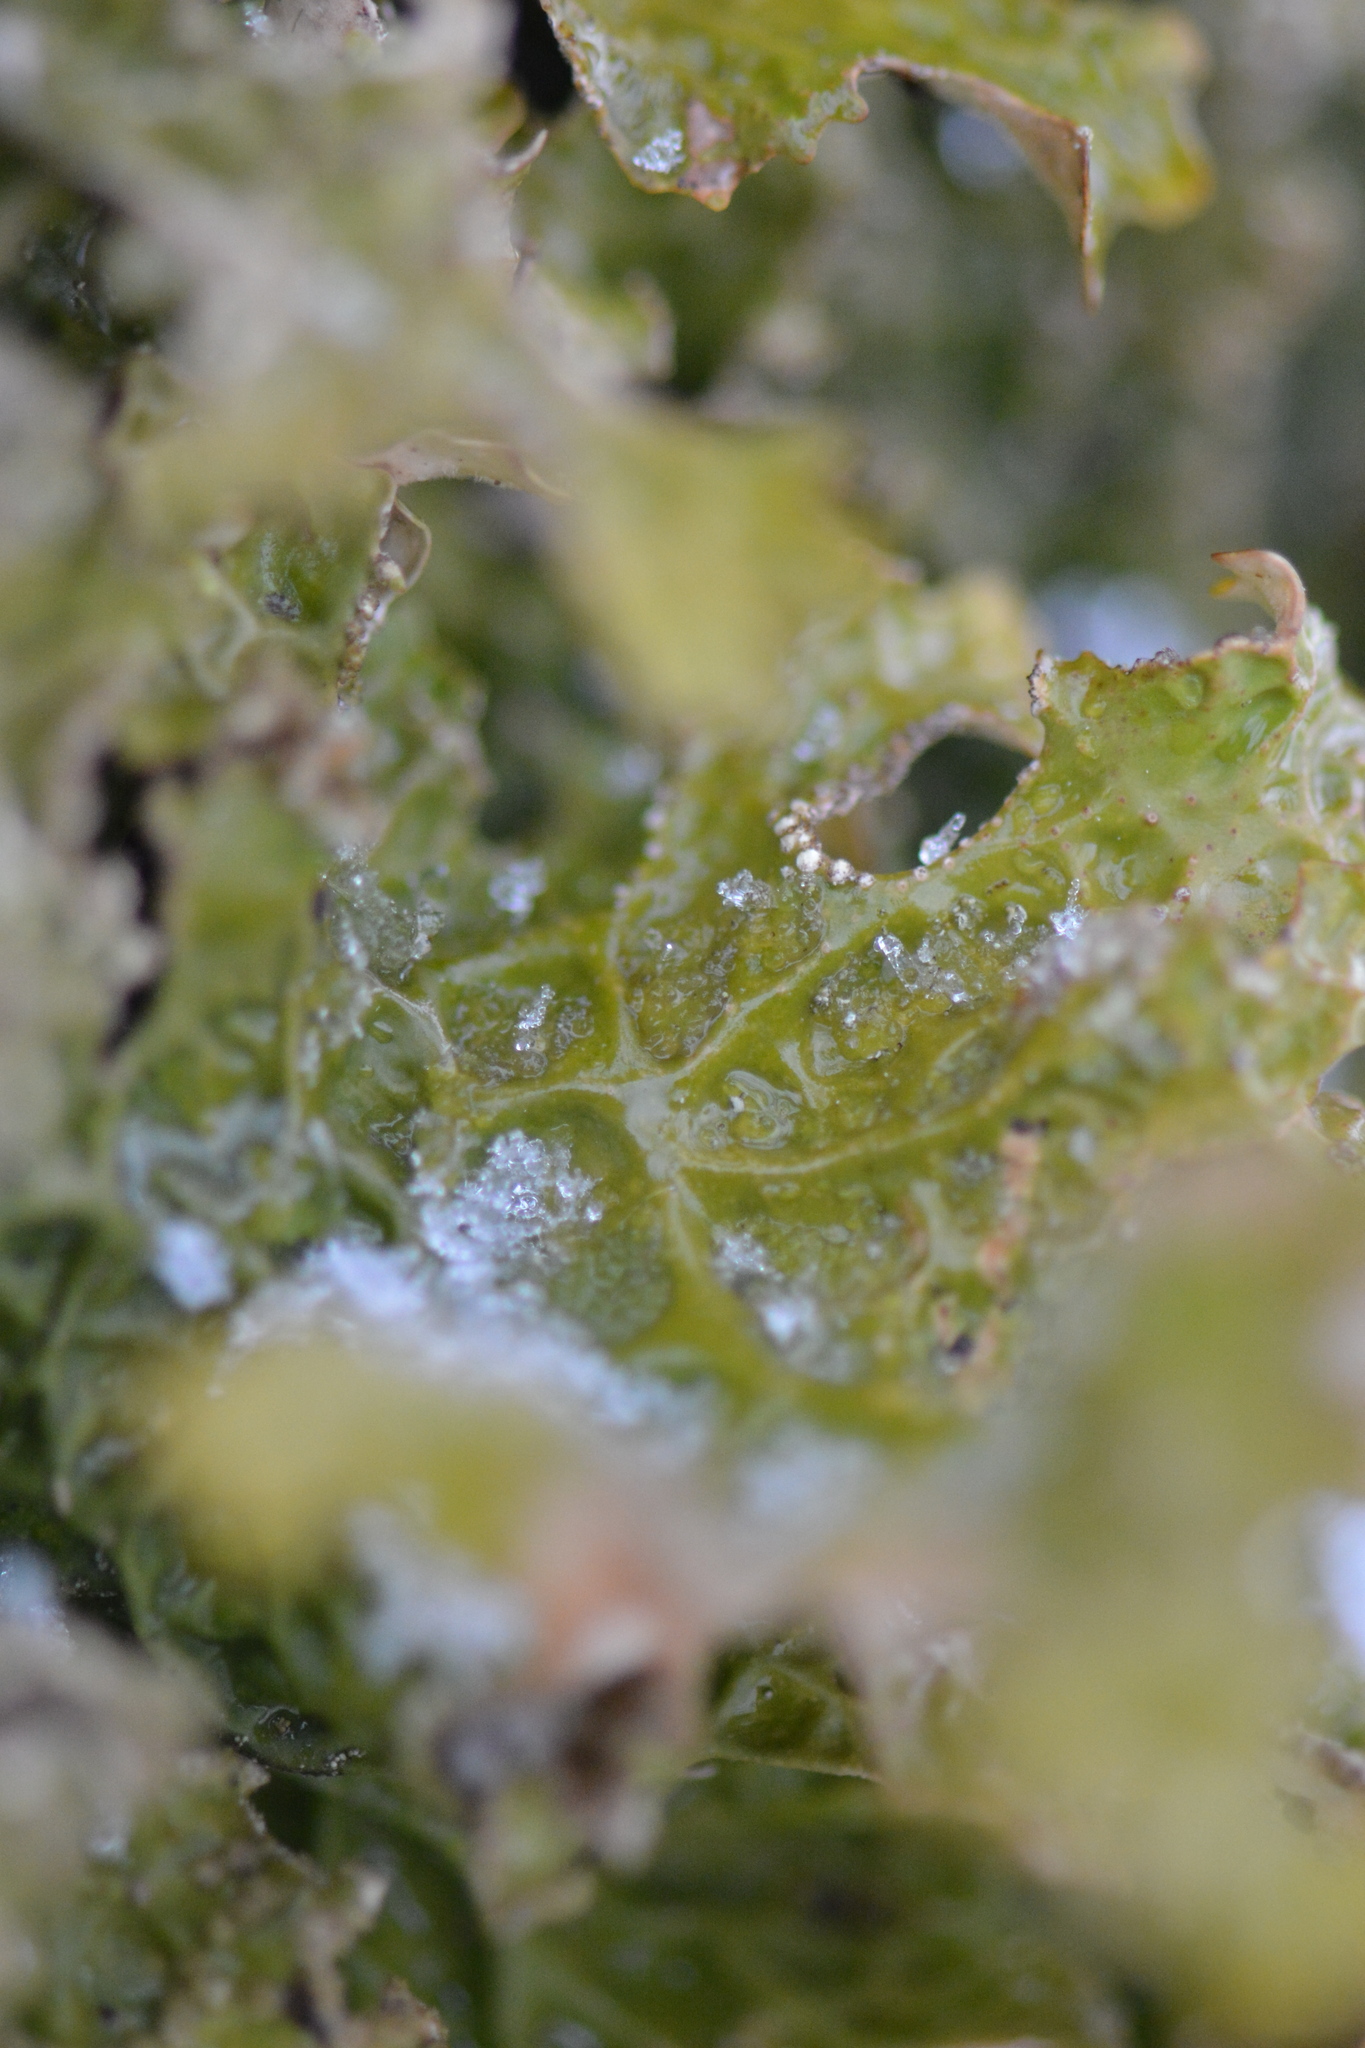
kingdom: Fungi
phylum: Ascomycota
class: Lecanoromycetes
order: Peltigerales
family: Lobariaceae
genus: Lobaria
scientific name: Lobaria pulmonaria
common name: Lungwort
